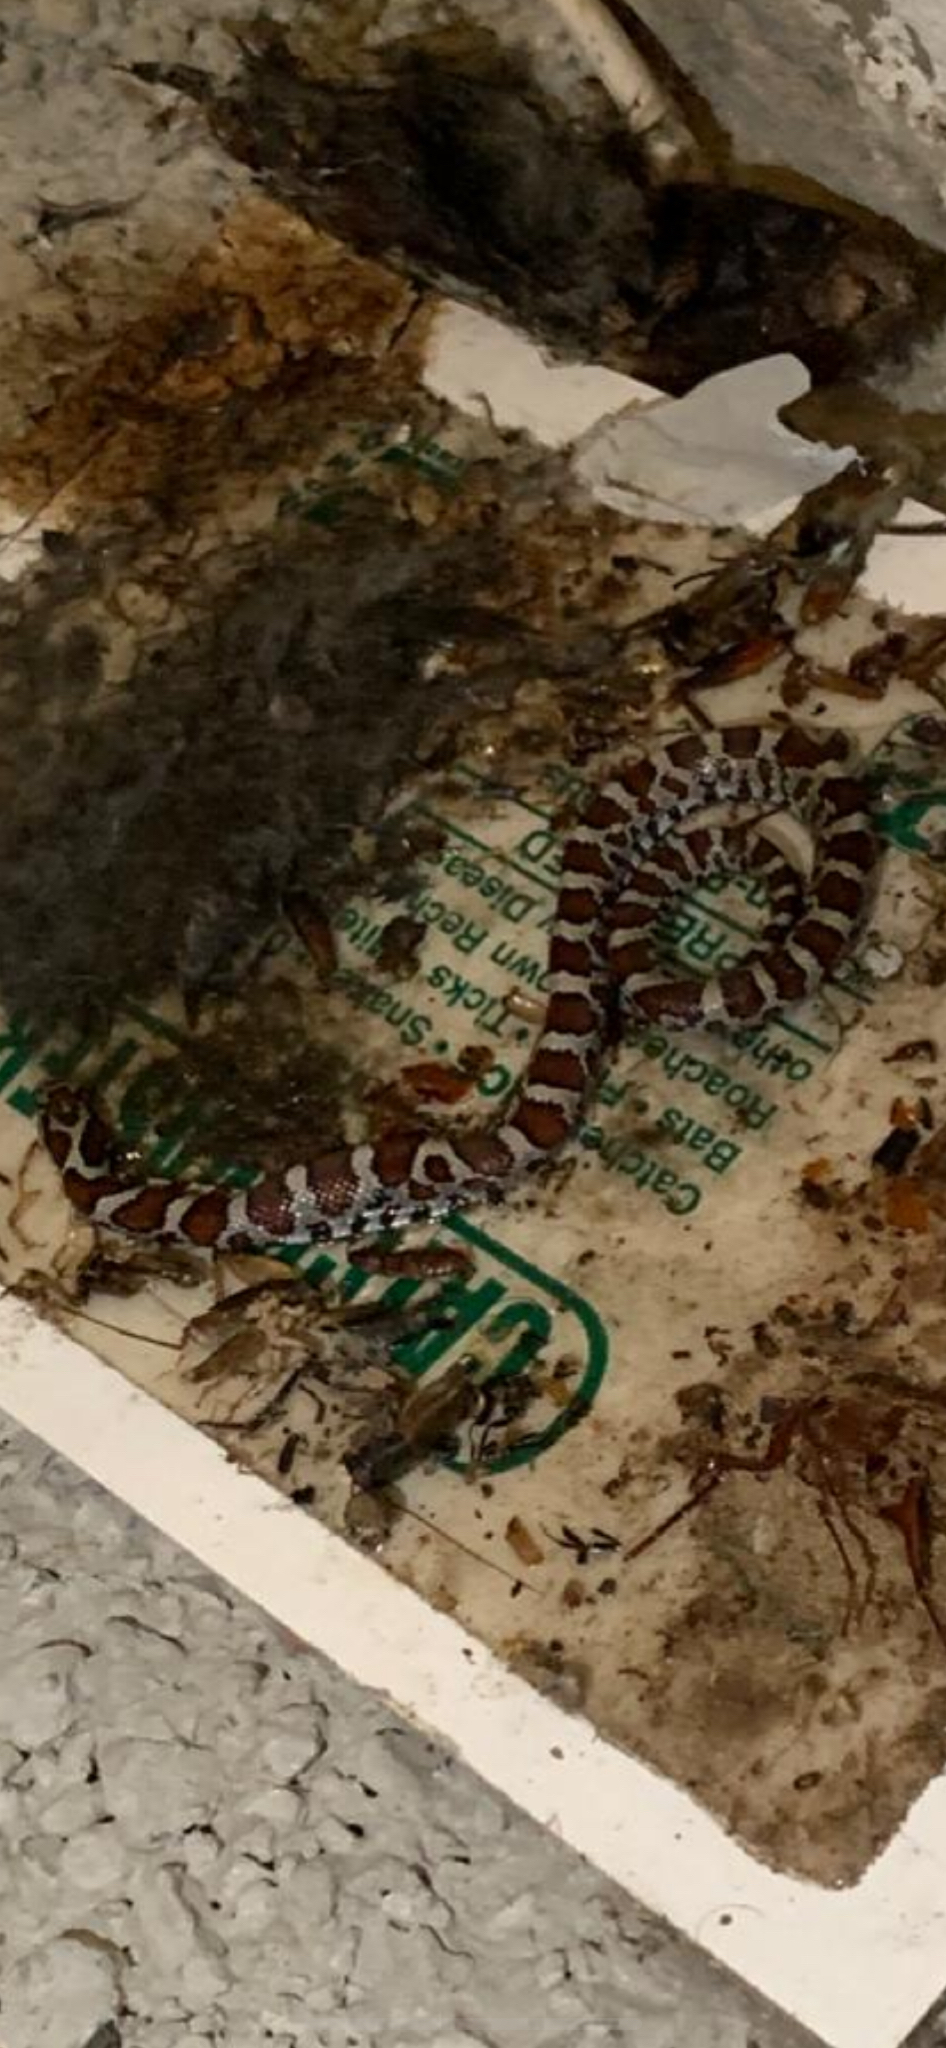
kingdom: Animalia
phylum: Chordata
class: Squamata
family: Colubridae
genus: Lampropeltis
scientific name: Lampropeltis triangulum
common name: Eastern milksnake
